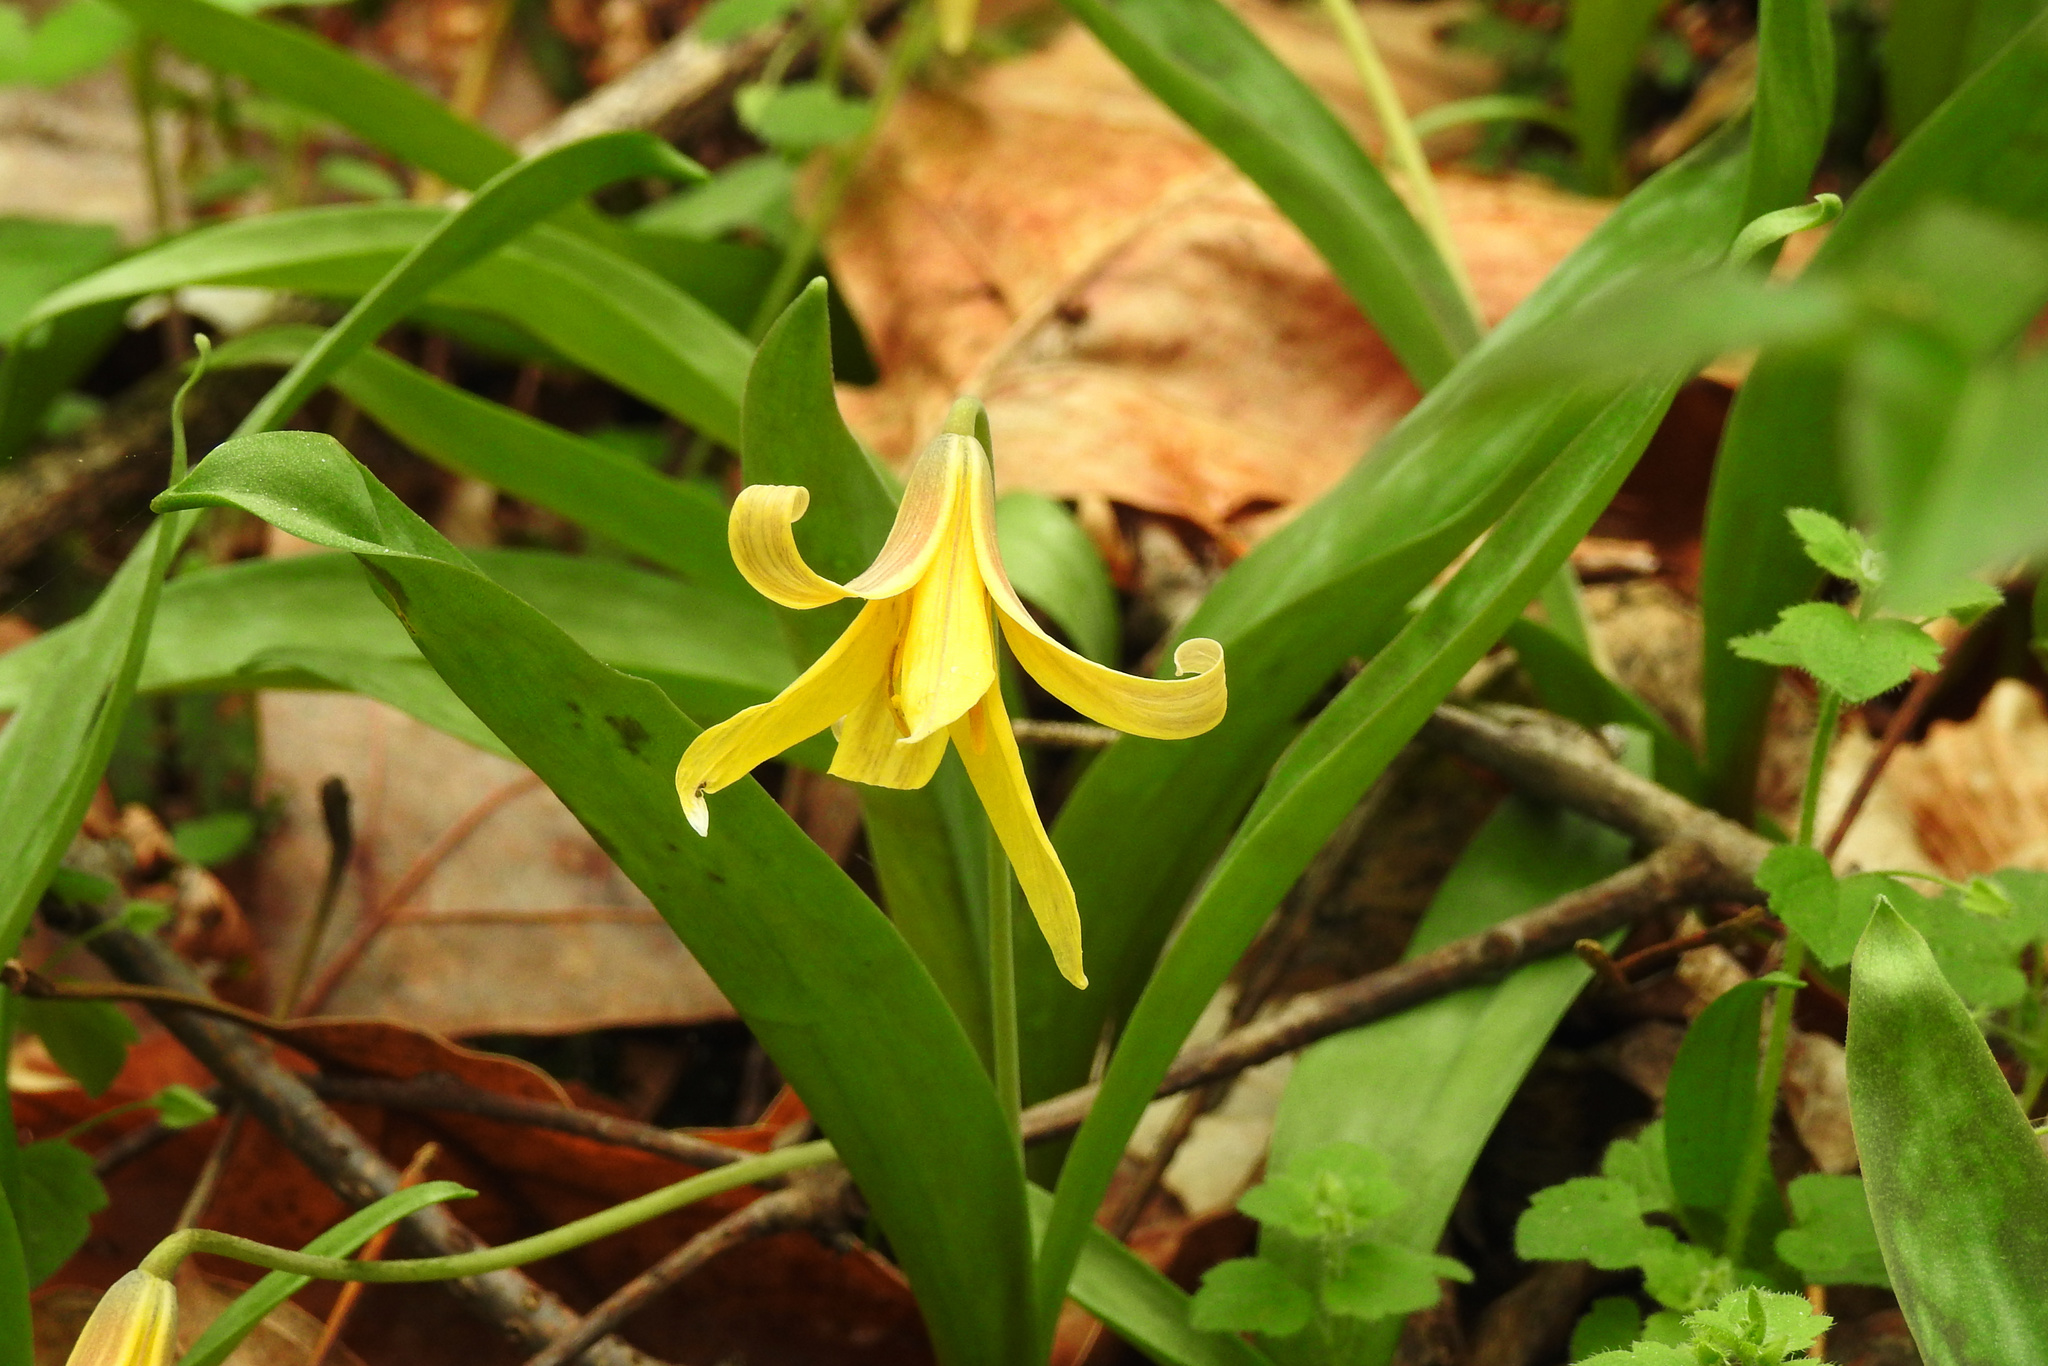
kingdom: Plantae
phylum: Tracheophyta
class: Liliopsida
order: Liliales
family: Liliaceae
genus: Erythronium
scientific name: Erythronium americanum
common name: Yellow adder's-tongue
